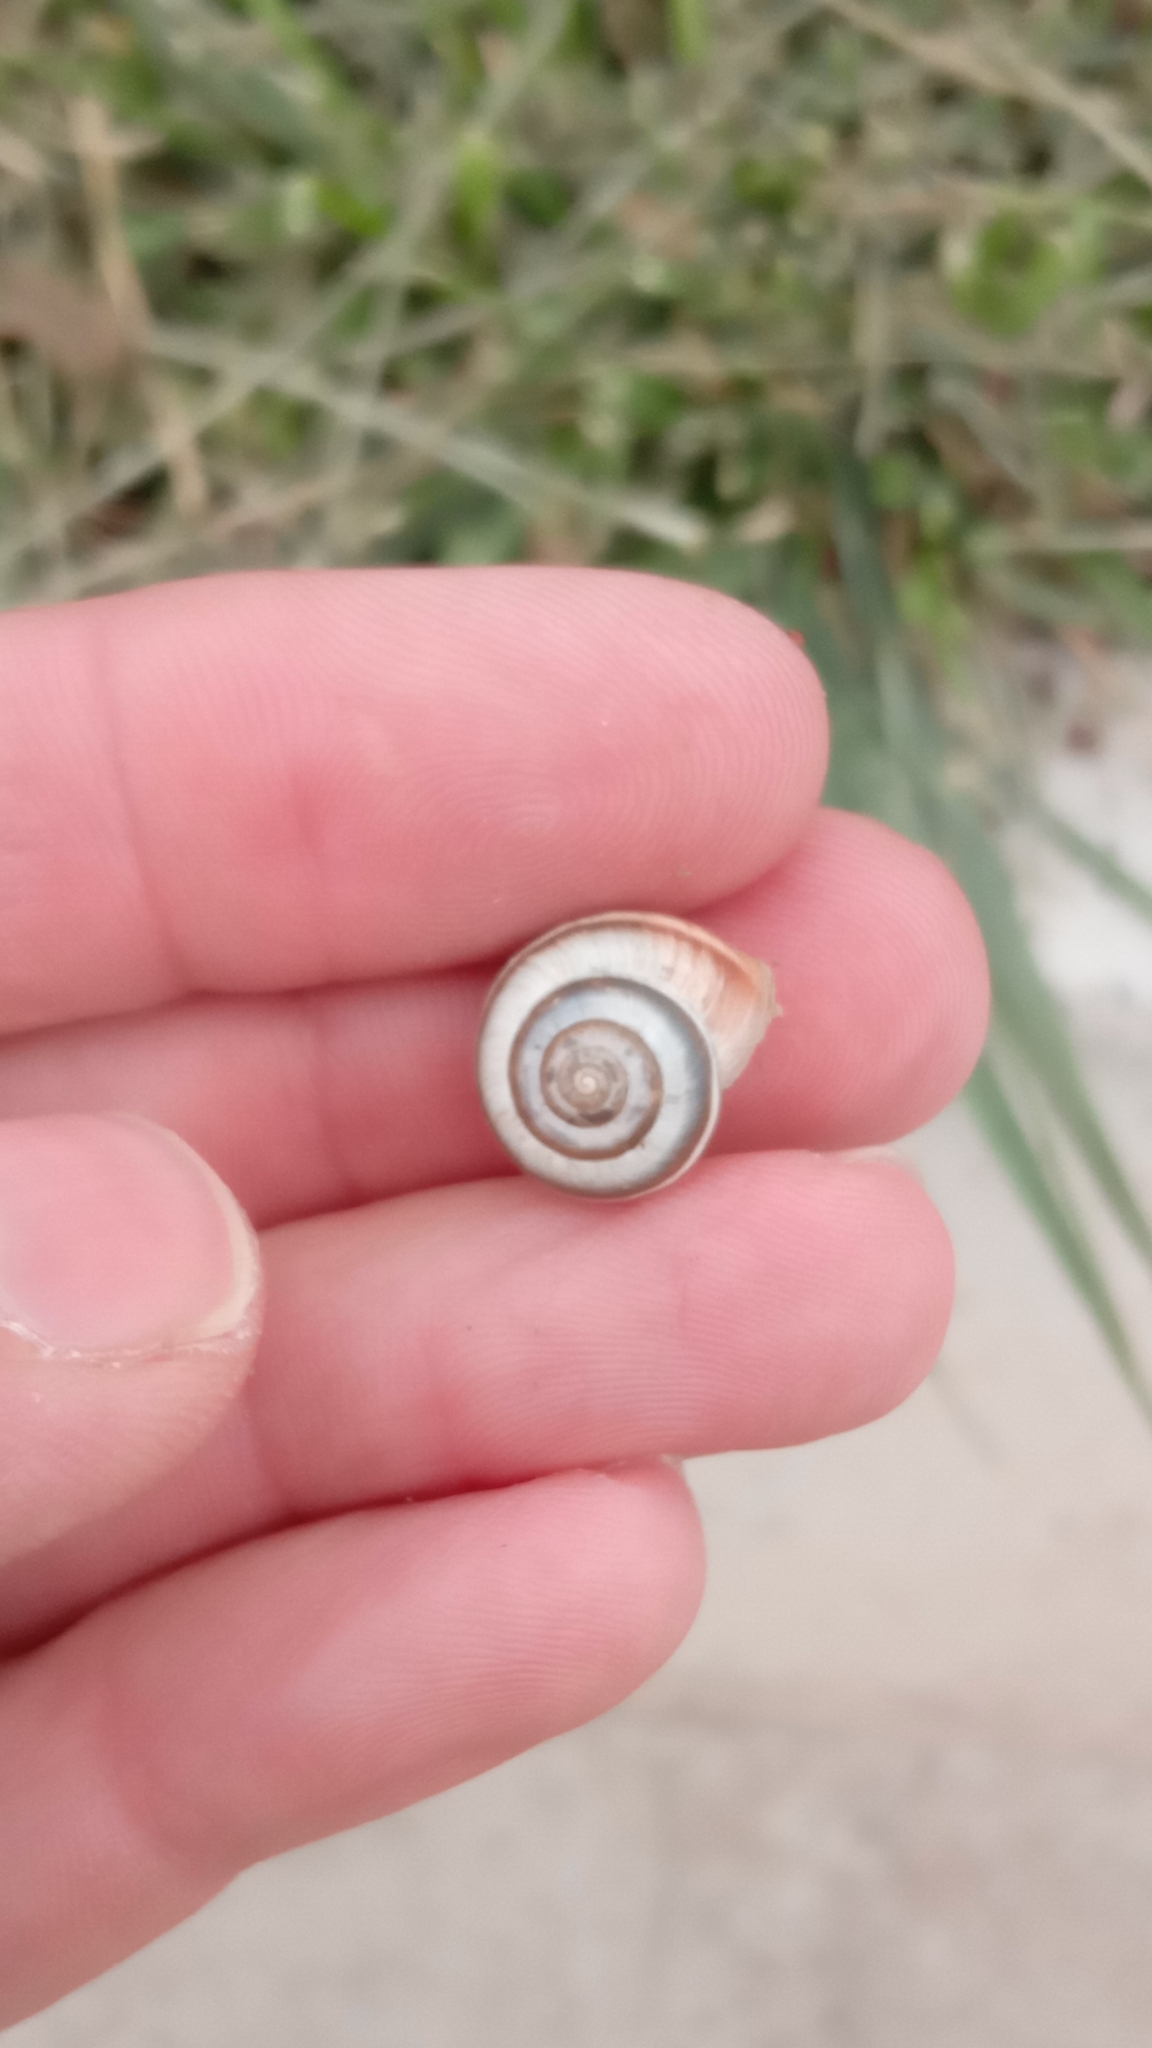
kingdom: Animalia
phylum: Mollusca
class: Gastropoda
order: Stylommatophora
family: Hygromiidae
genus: Harmozica
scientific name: Harmozica ravergiensis
